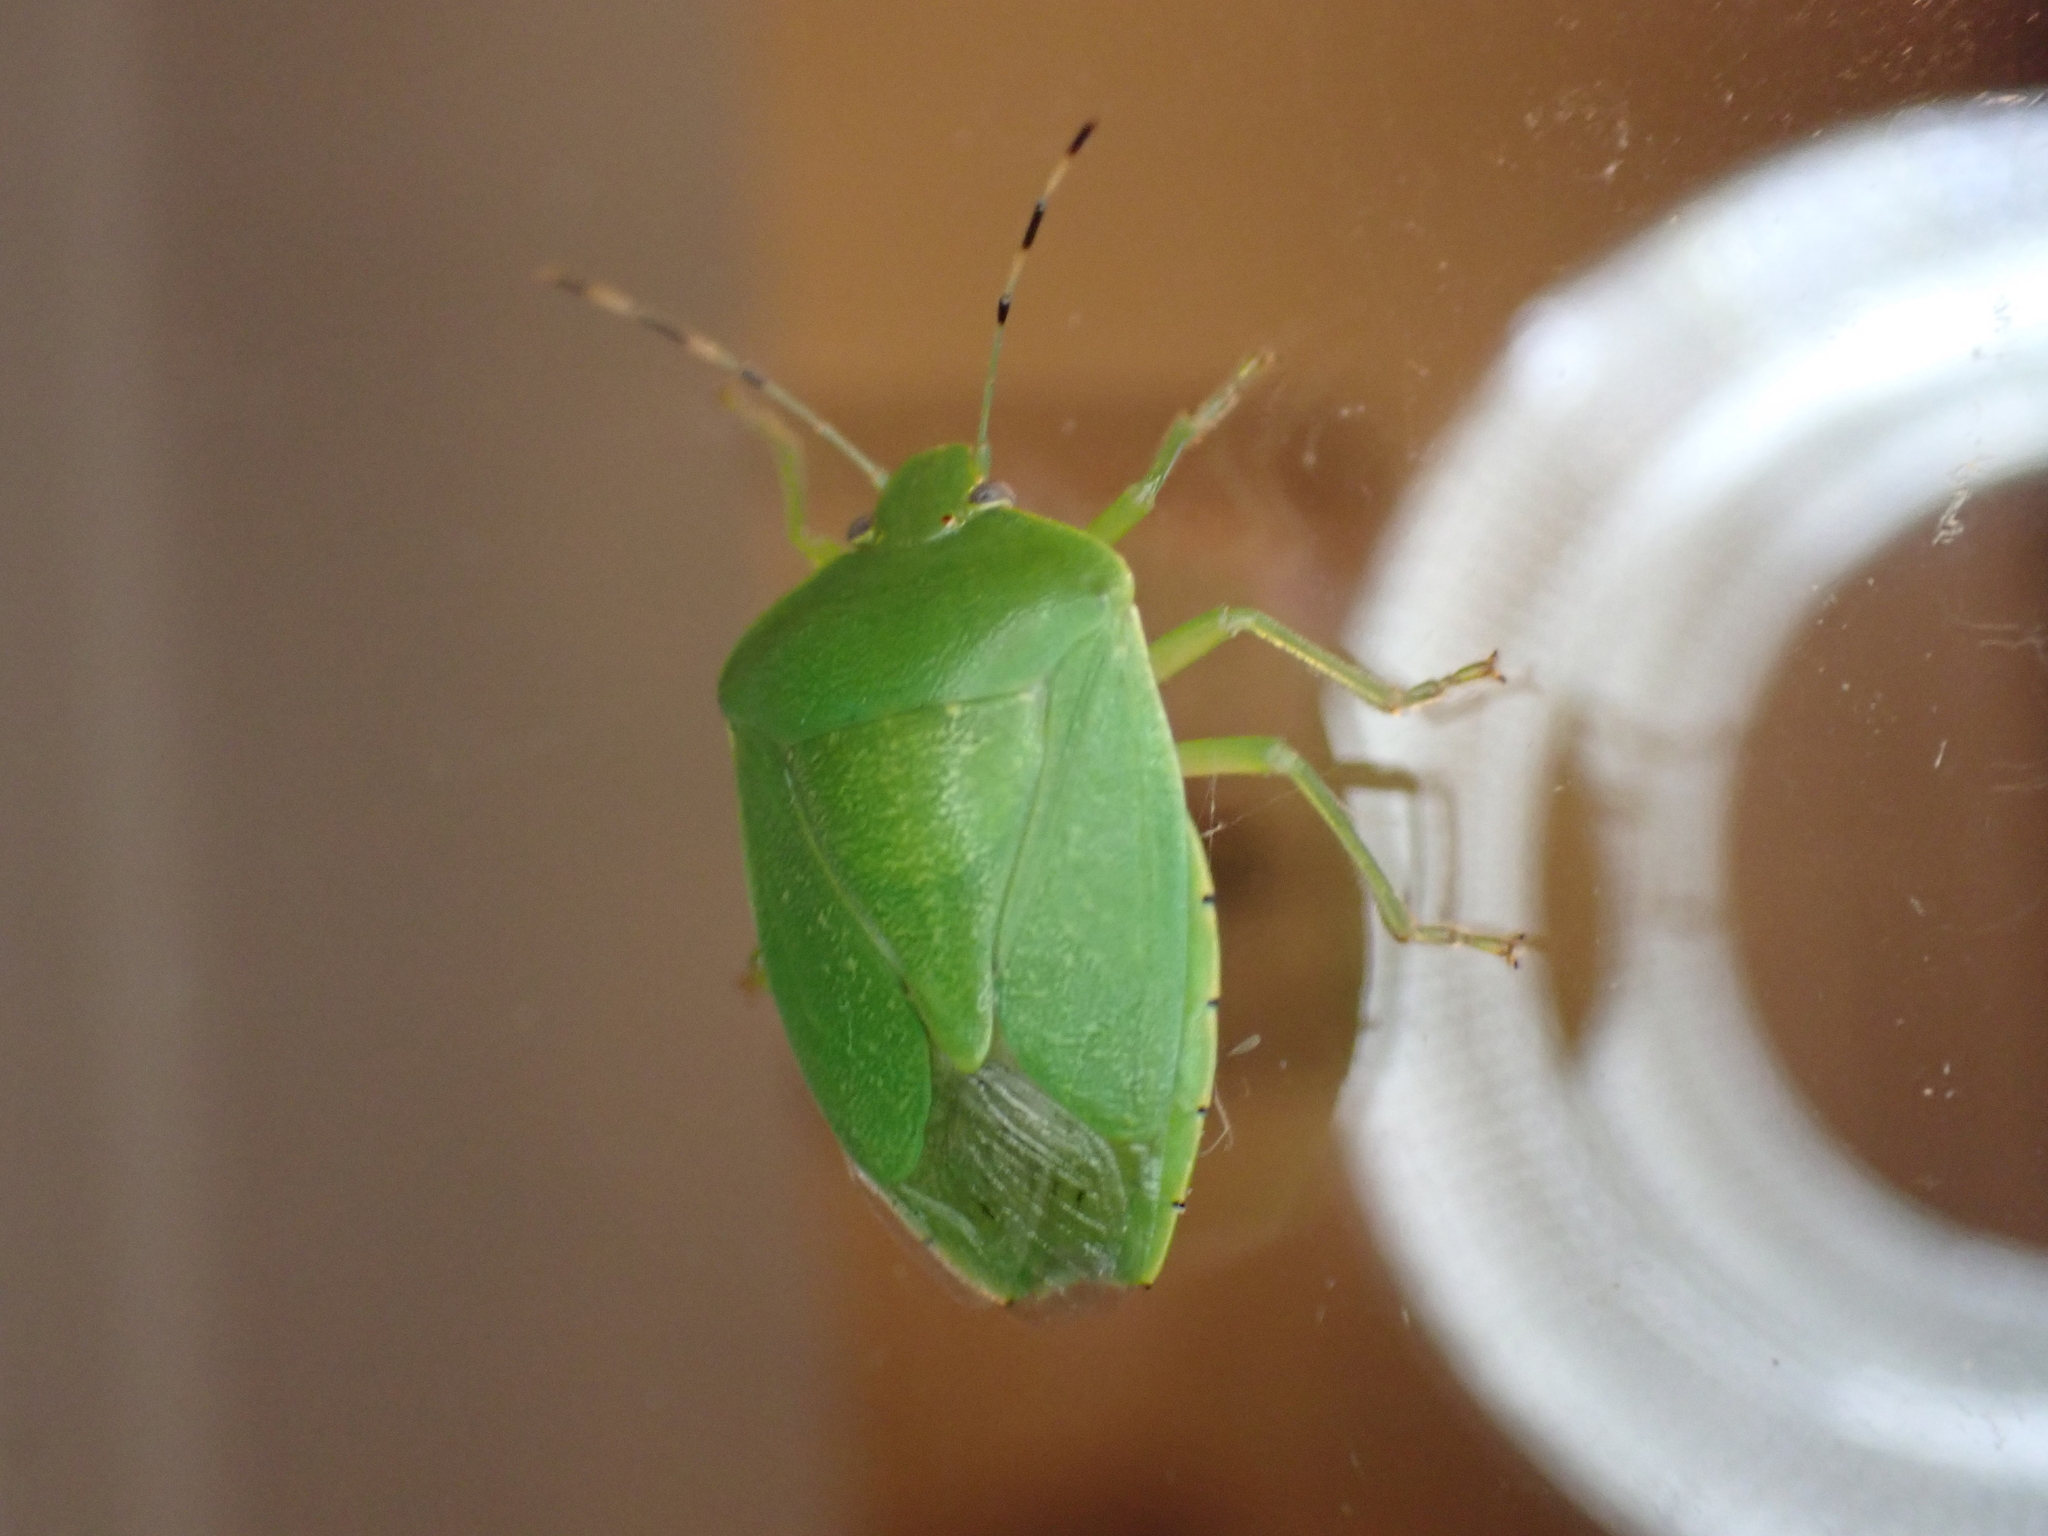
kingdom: Animalia
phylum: Arthropoda
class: Insecta
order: Hemiptera
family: Pentatomidae
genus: Chinavia
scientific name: Chinavia hilaris
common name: Green stink bug
